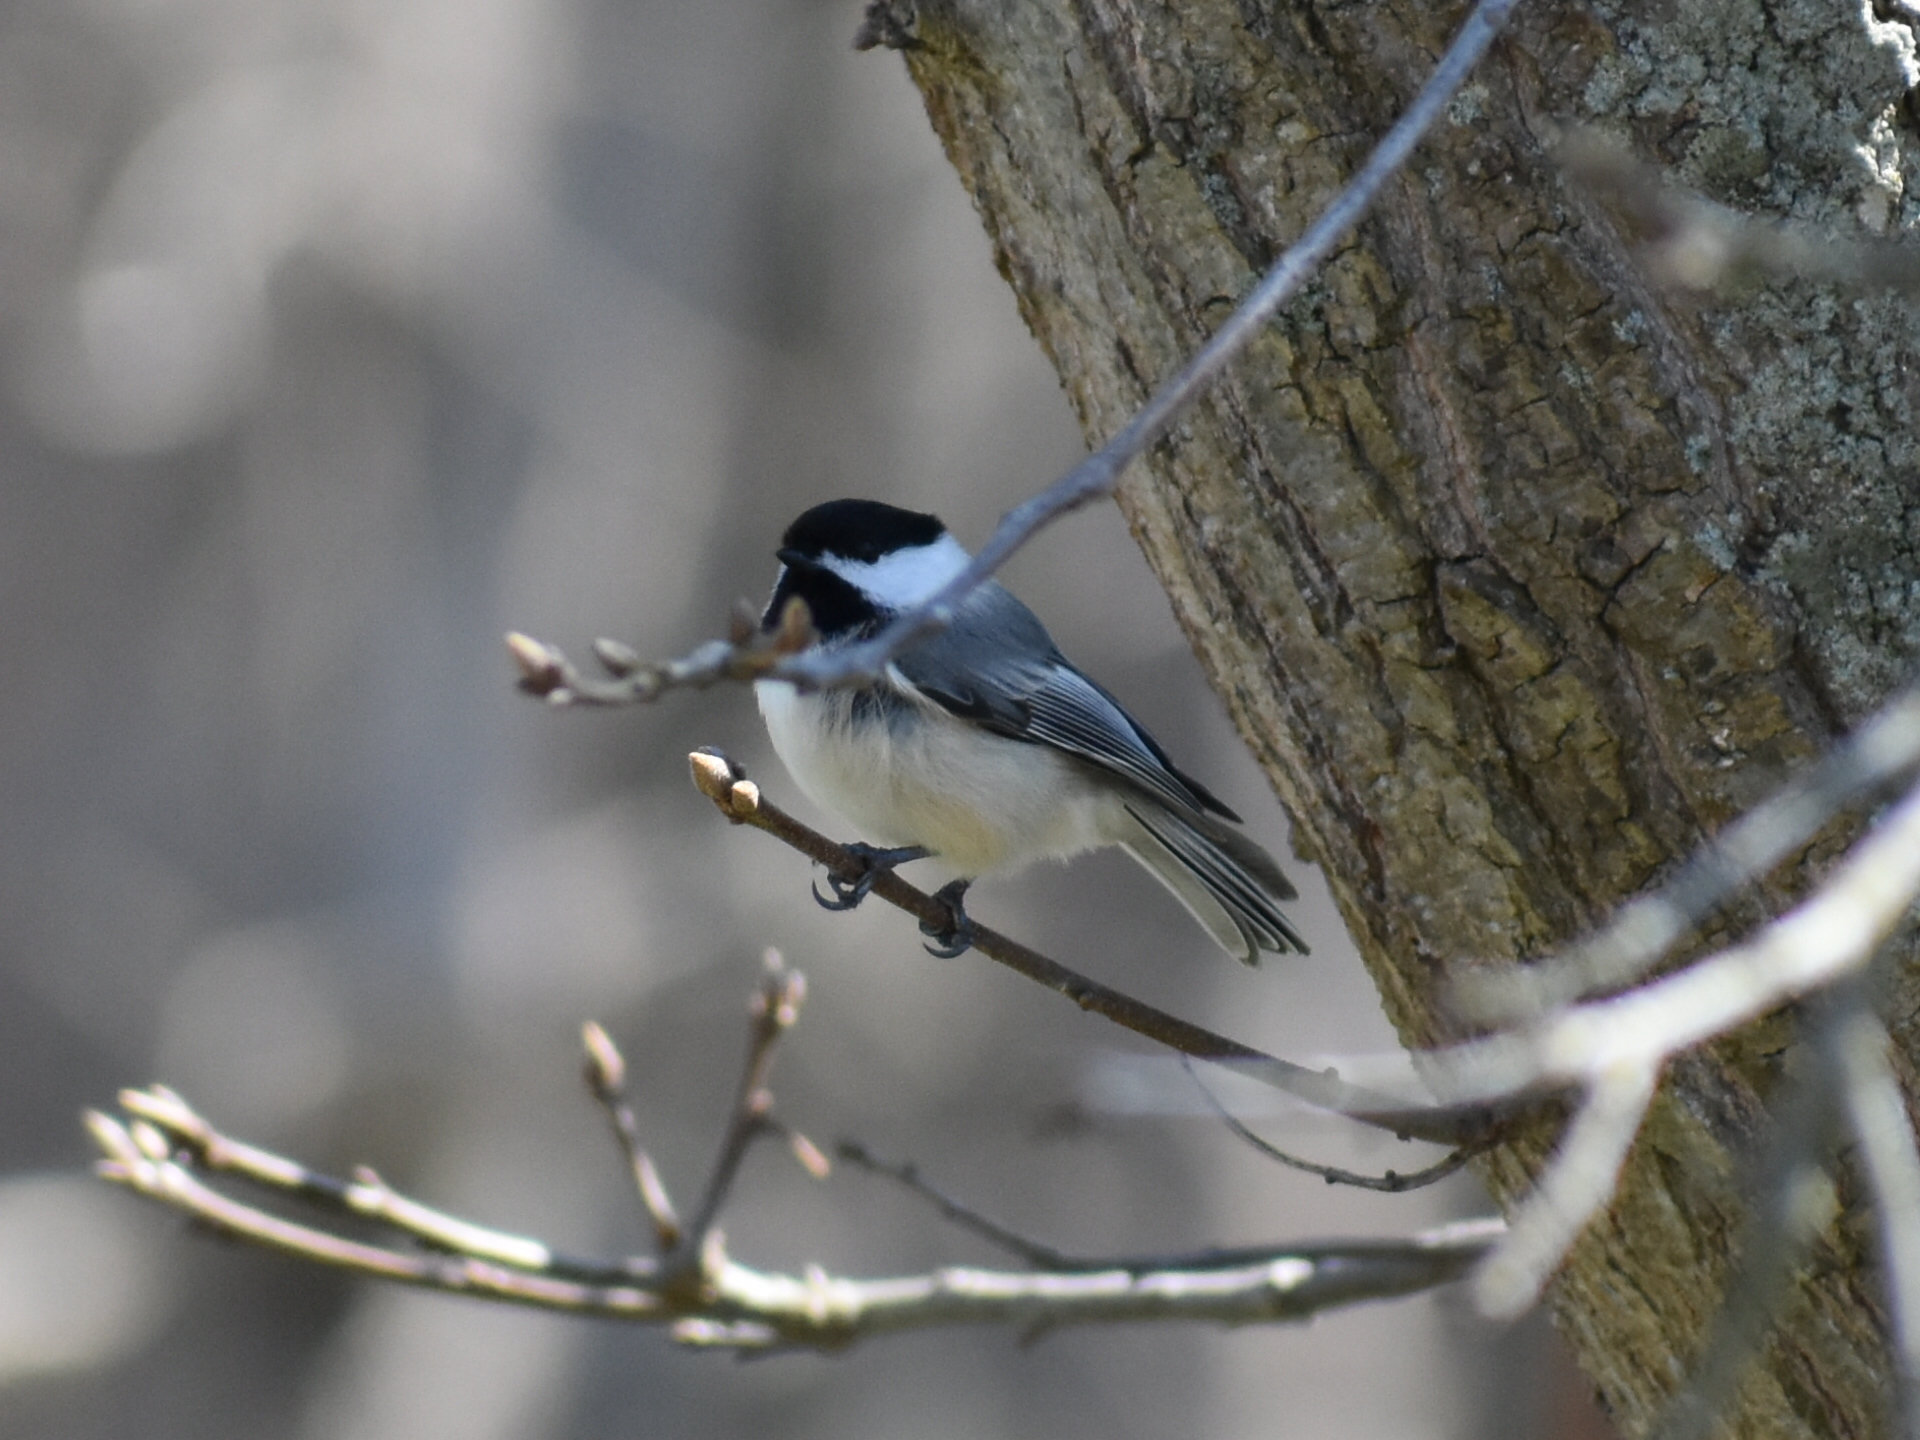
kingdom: Animalia
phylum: Chordata
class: Aves
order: Passeriformes
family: Paridae
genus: Poecile
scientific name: Poecile atricapillus
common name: Black-capped chickadee
